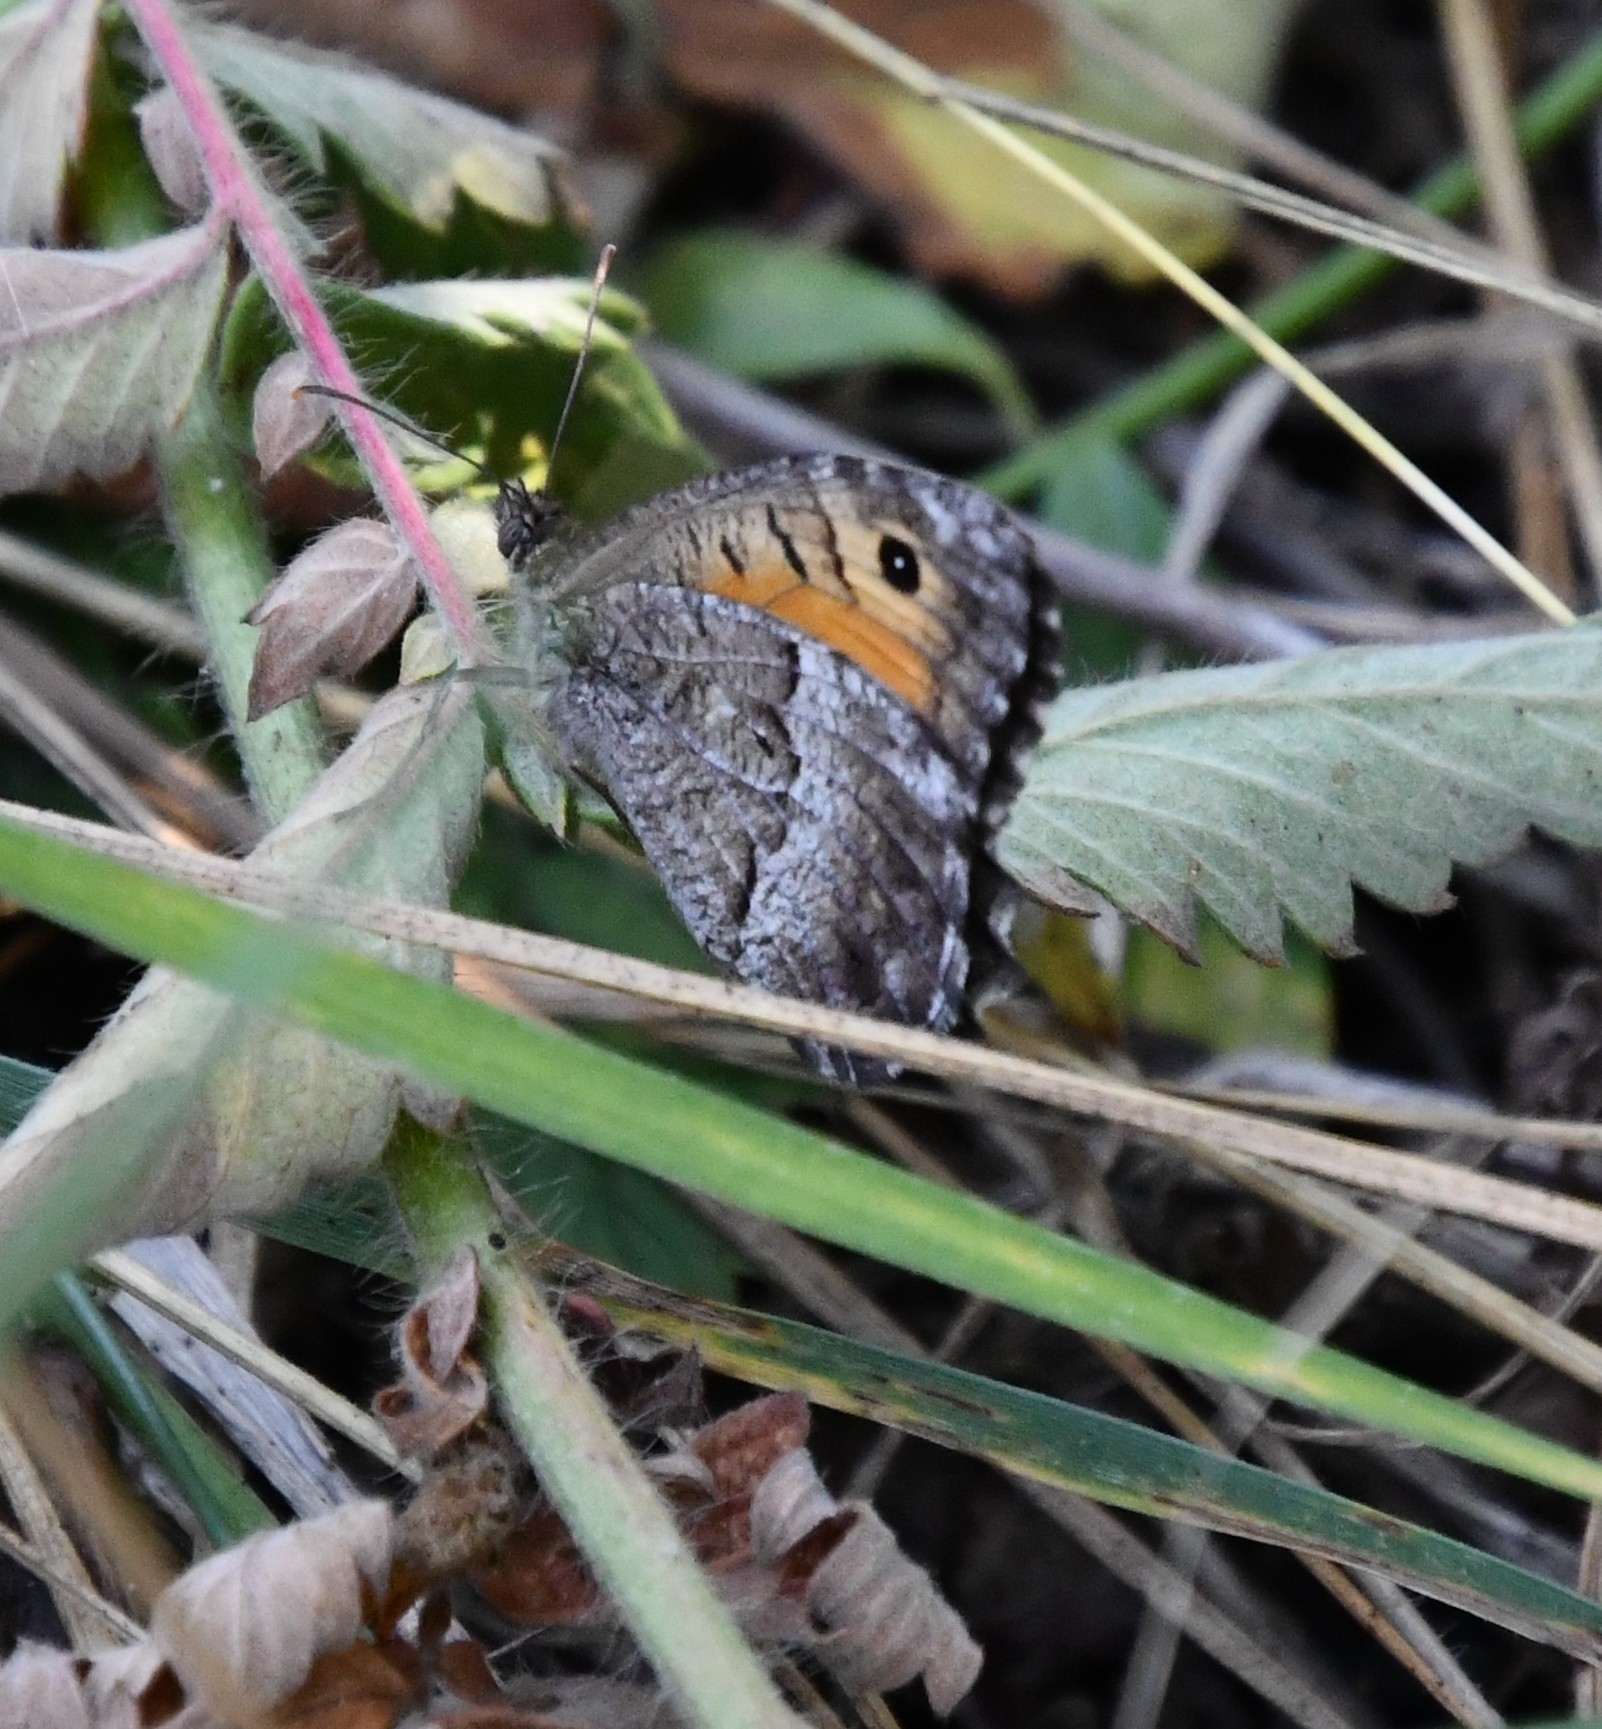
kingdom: Animalia
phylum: Arthropoda
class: Insecta
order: Lepidoptera
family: Nymphalidae
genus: Arethusana
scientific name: Arethusana arethusa
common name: False grayling
